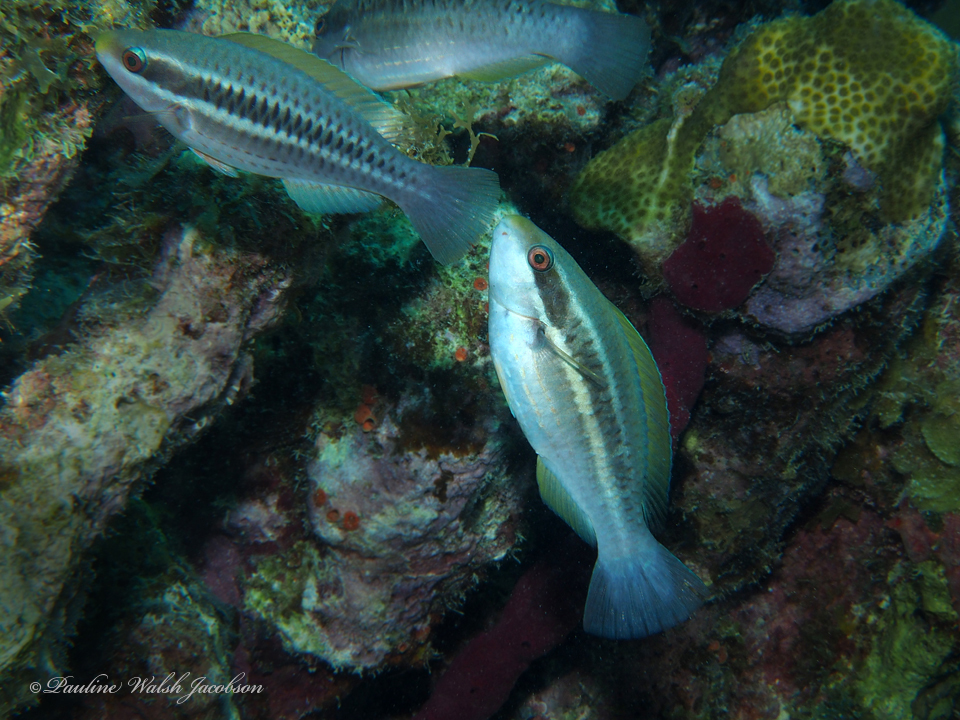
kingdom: Animalia
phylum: Chordata
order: Perciformes
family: Scaridae
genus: Scarus
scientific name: Scarus iseri
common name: Striped parrotfish
